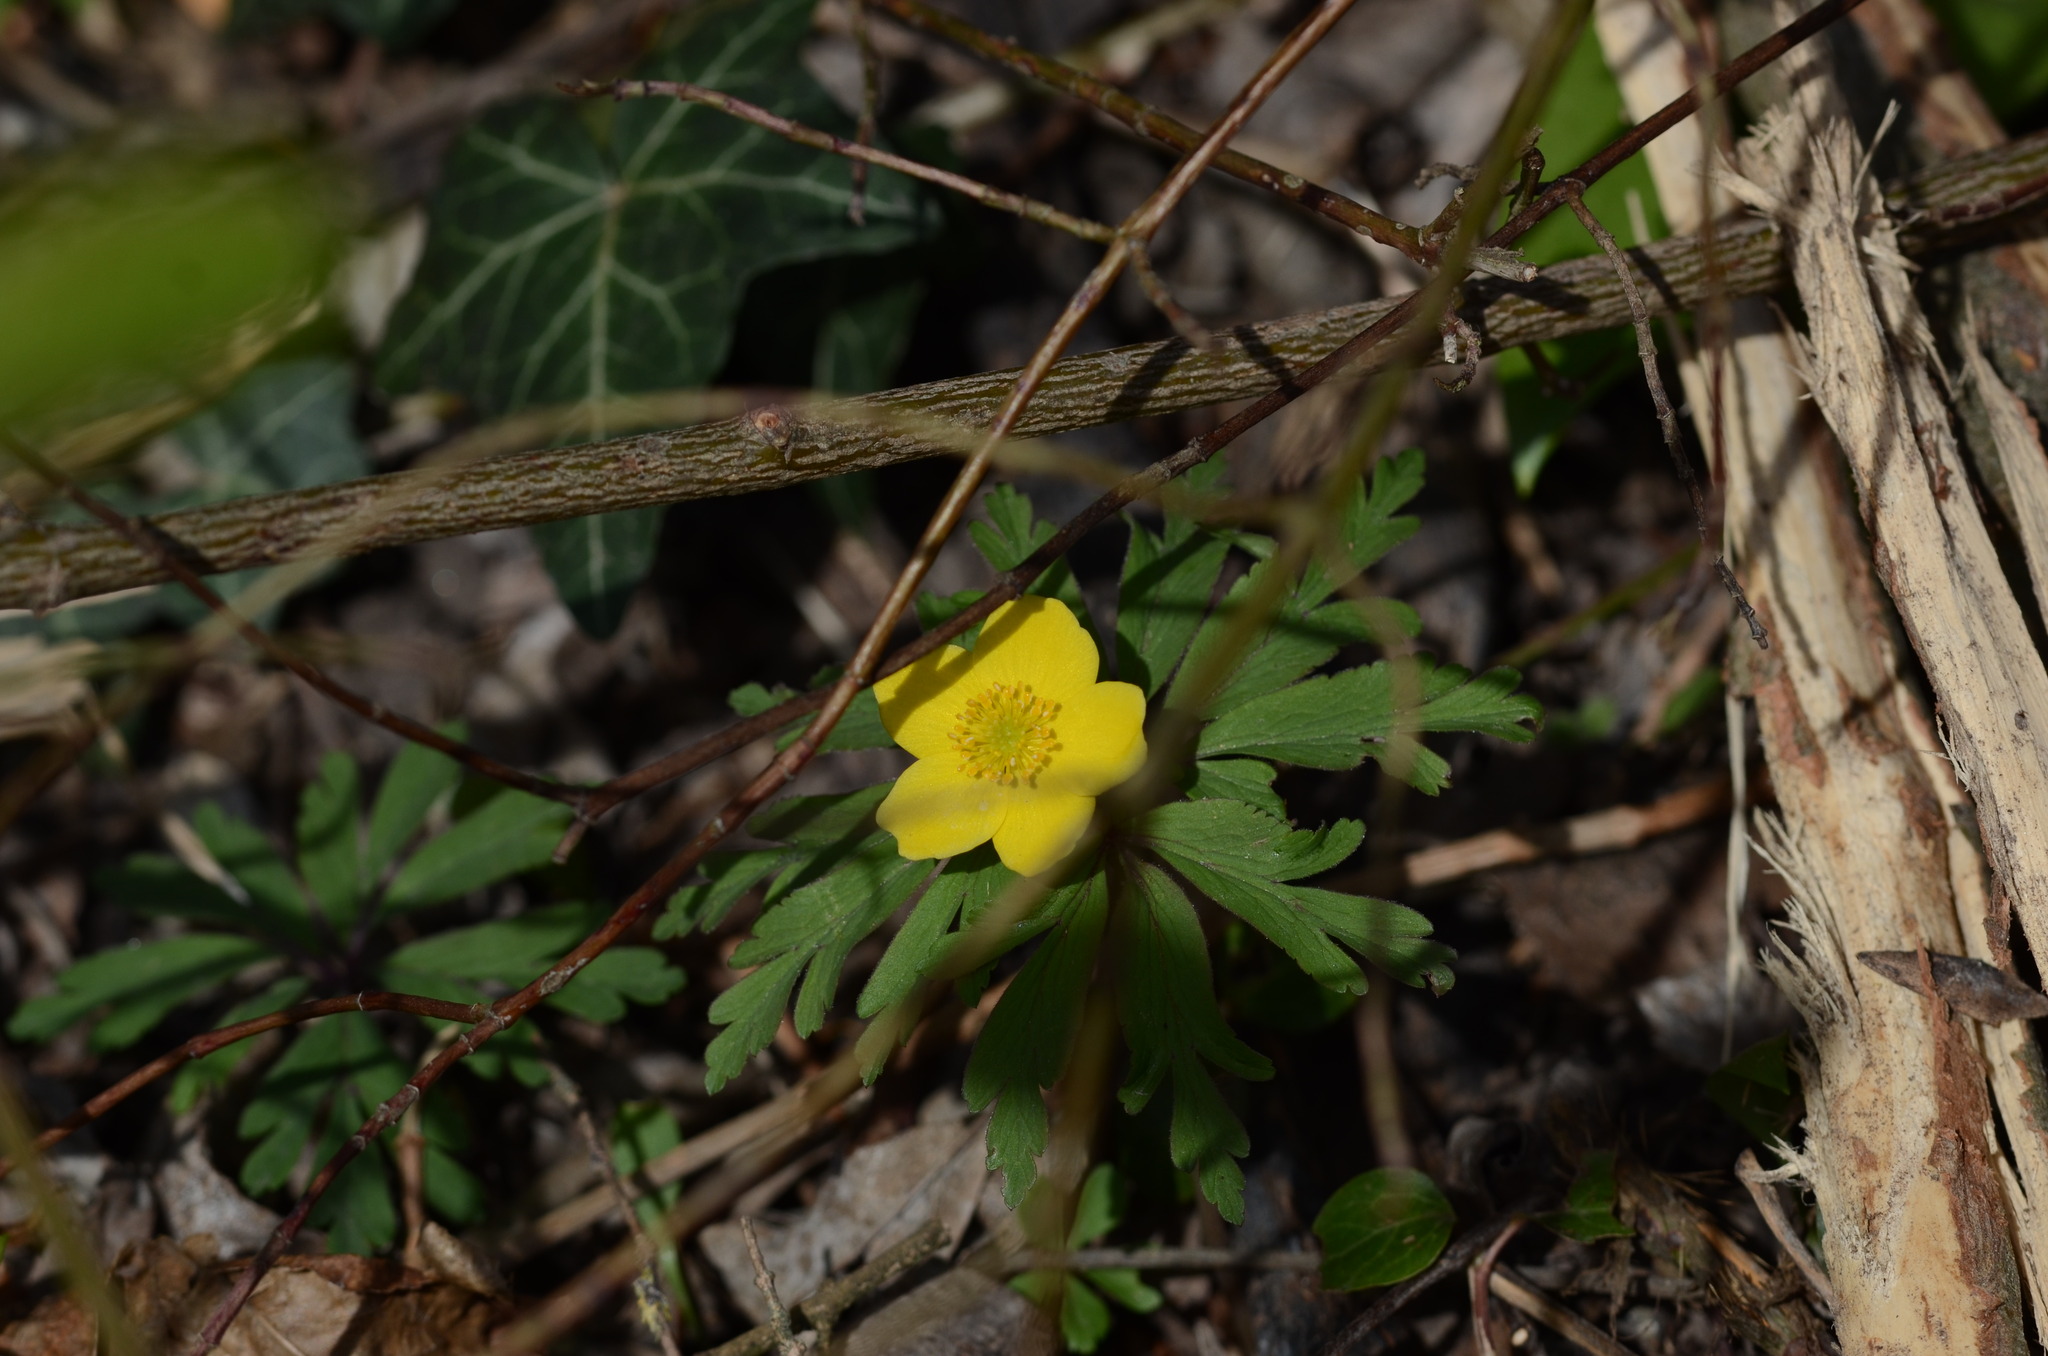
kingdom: Plantae
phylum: Tracheophyta
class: Magnoliopsida
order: Ranunculales
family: Ranunculaceae
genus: Anemone
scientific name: Anemone ranunculoides
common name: Yellow anemone
